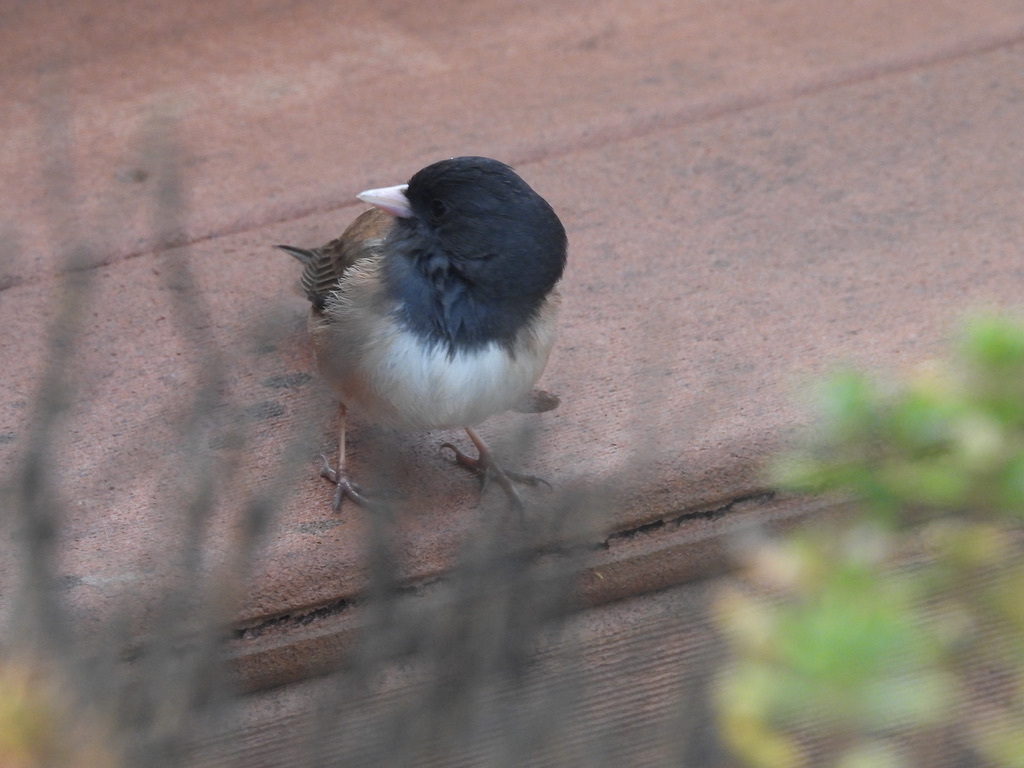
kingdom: Animalia
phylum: Chordata
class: Aves
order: Passeriformes
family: Passerellidae
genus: Junco
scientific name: Junco hyemalis
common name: Dark-eyed junco
